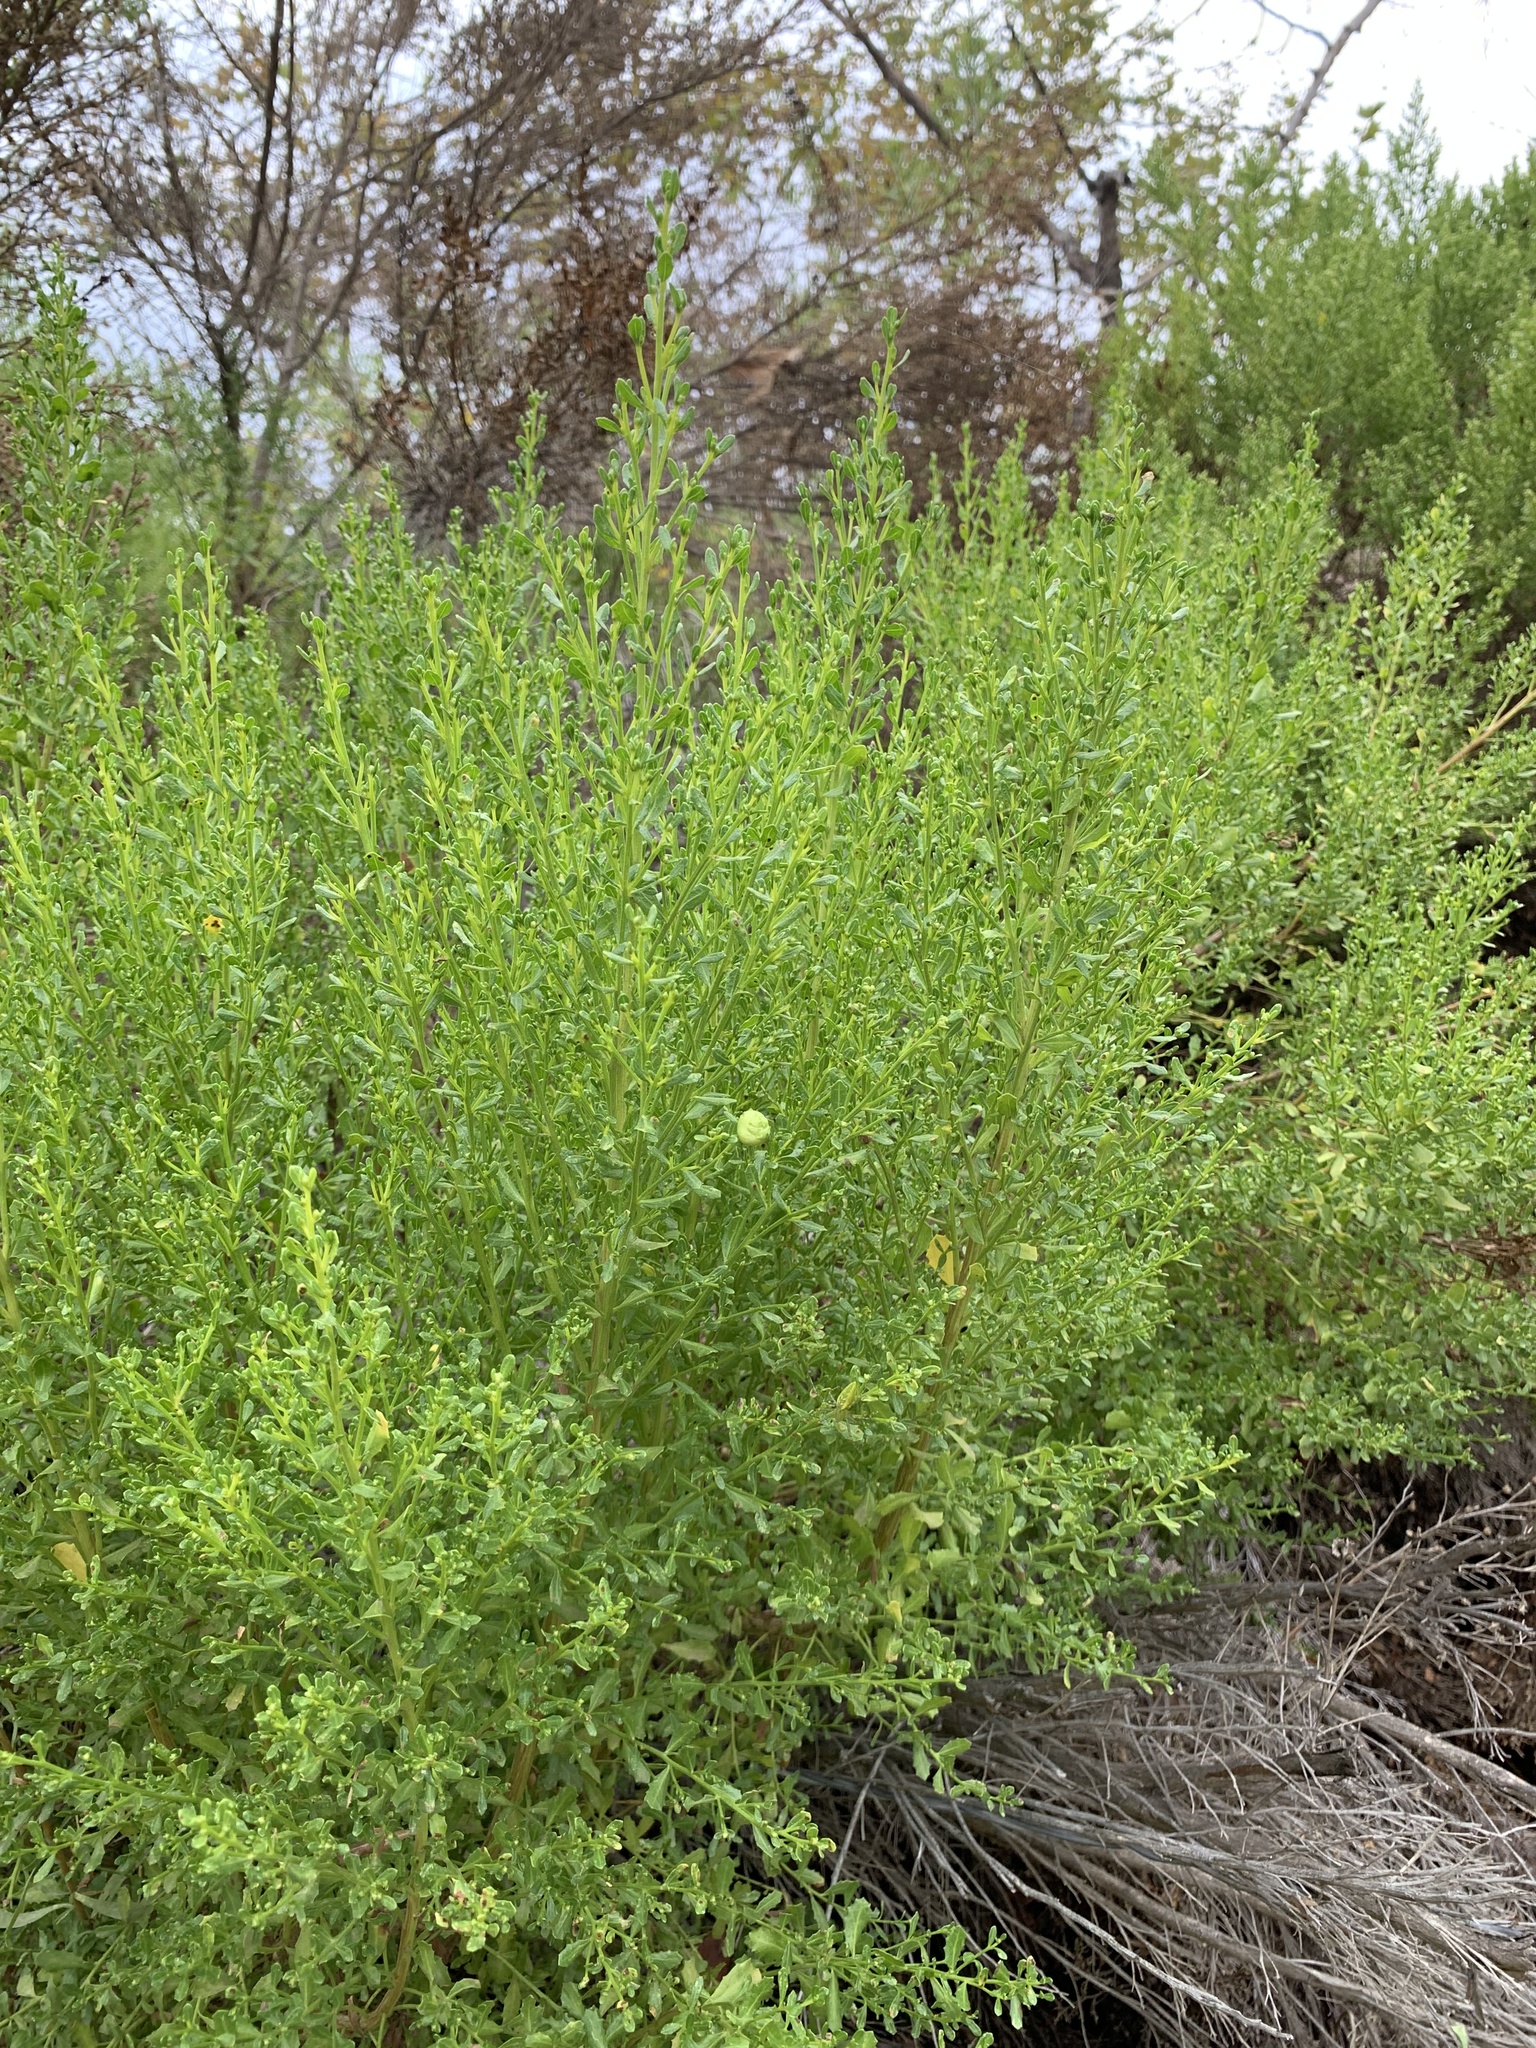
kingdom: Animalia
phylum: Arthropoda
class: Insecta
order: Diptera
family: Cecidomyiidae
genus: Rhopalomyia
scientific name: Rhopalomyia californica
